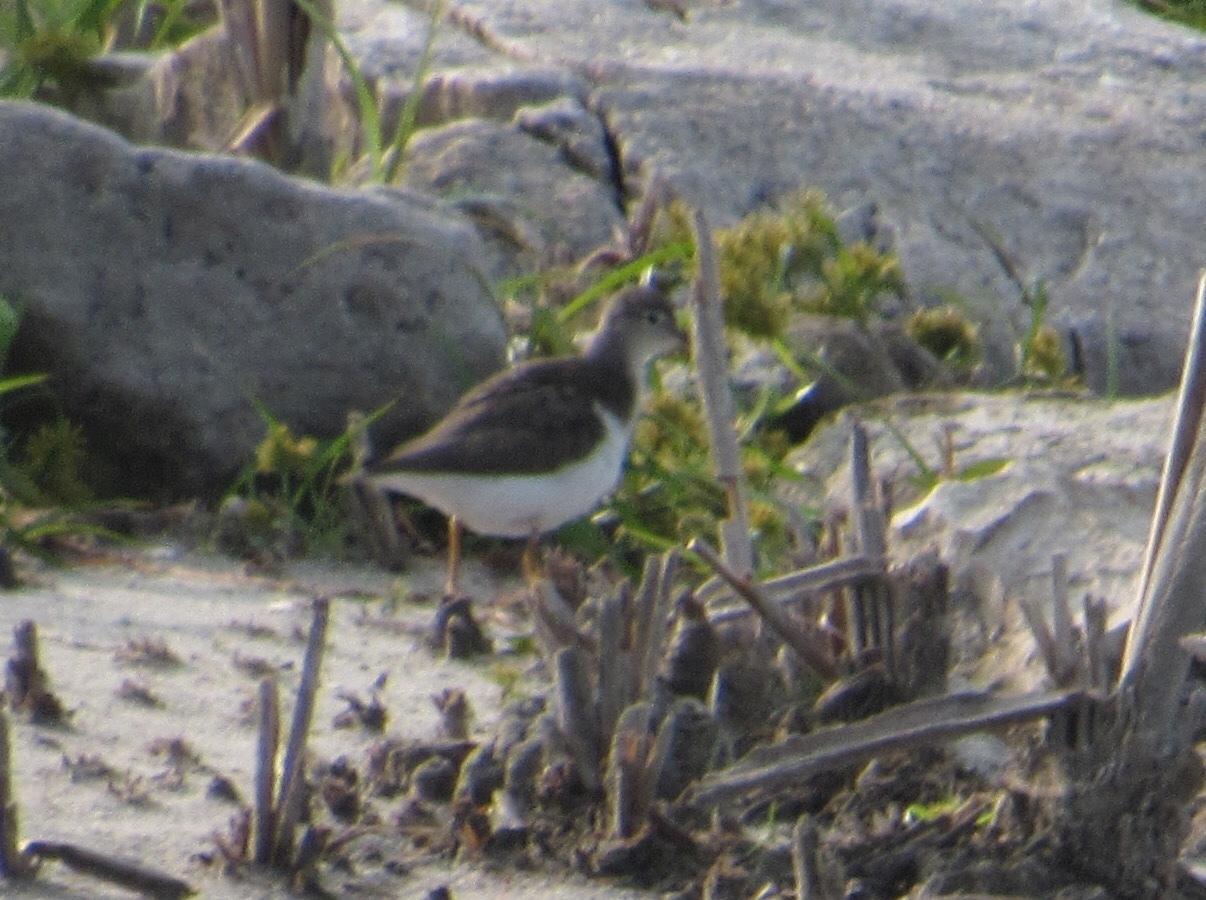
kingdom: Animalia
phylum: Chordata
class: Aves
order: Charadriiformes
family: Scolopacidae
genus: Actitis
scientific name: Actitis macularius
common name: Spotted sandpiper
